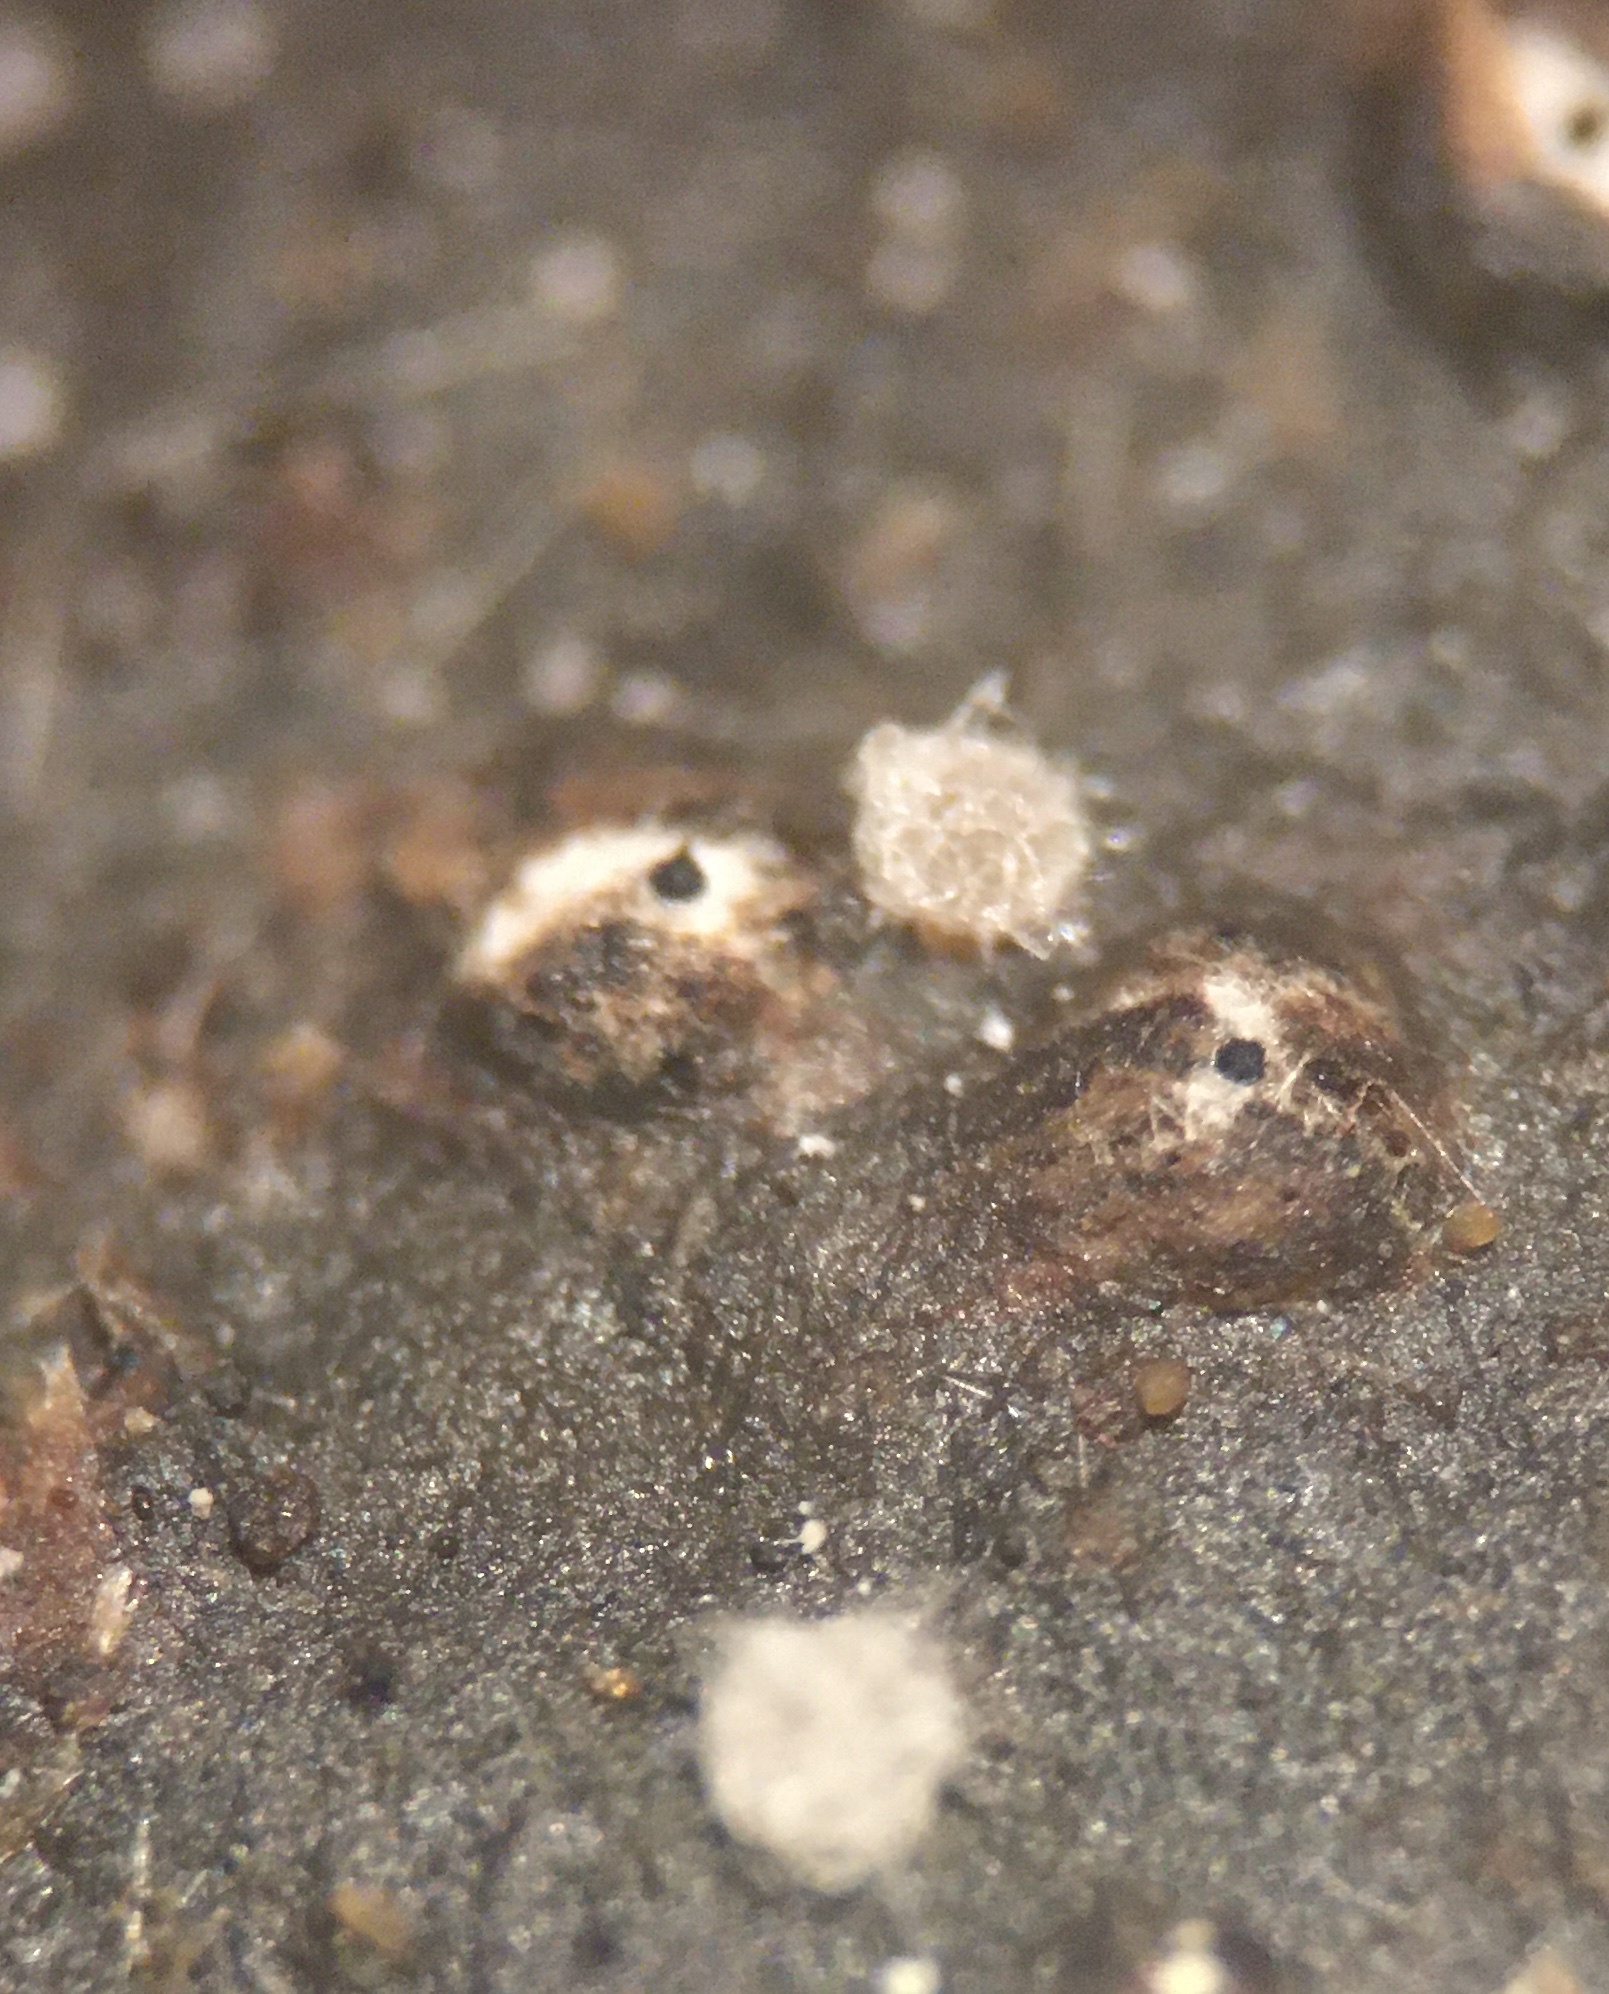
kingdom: Fungi
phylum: Ascomycota
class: Sordariomycetes
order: Sordariales
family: Podosporaceae
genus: Podospora
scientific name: Podospora australis
